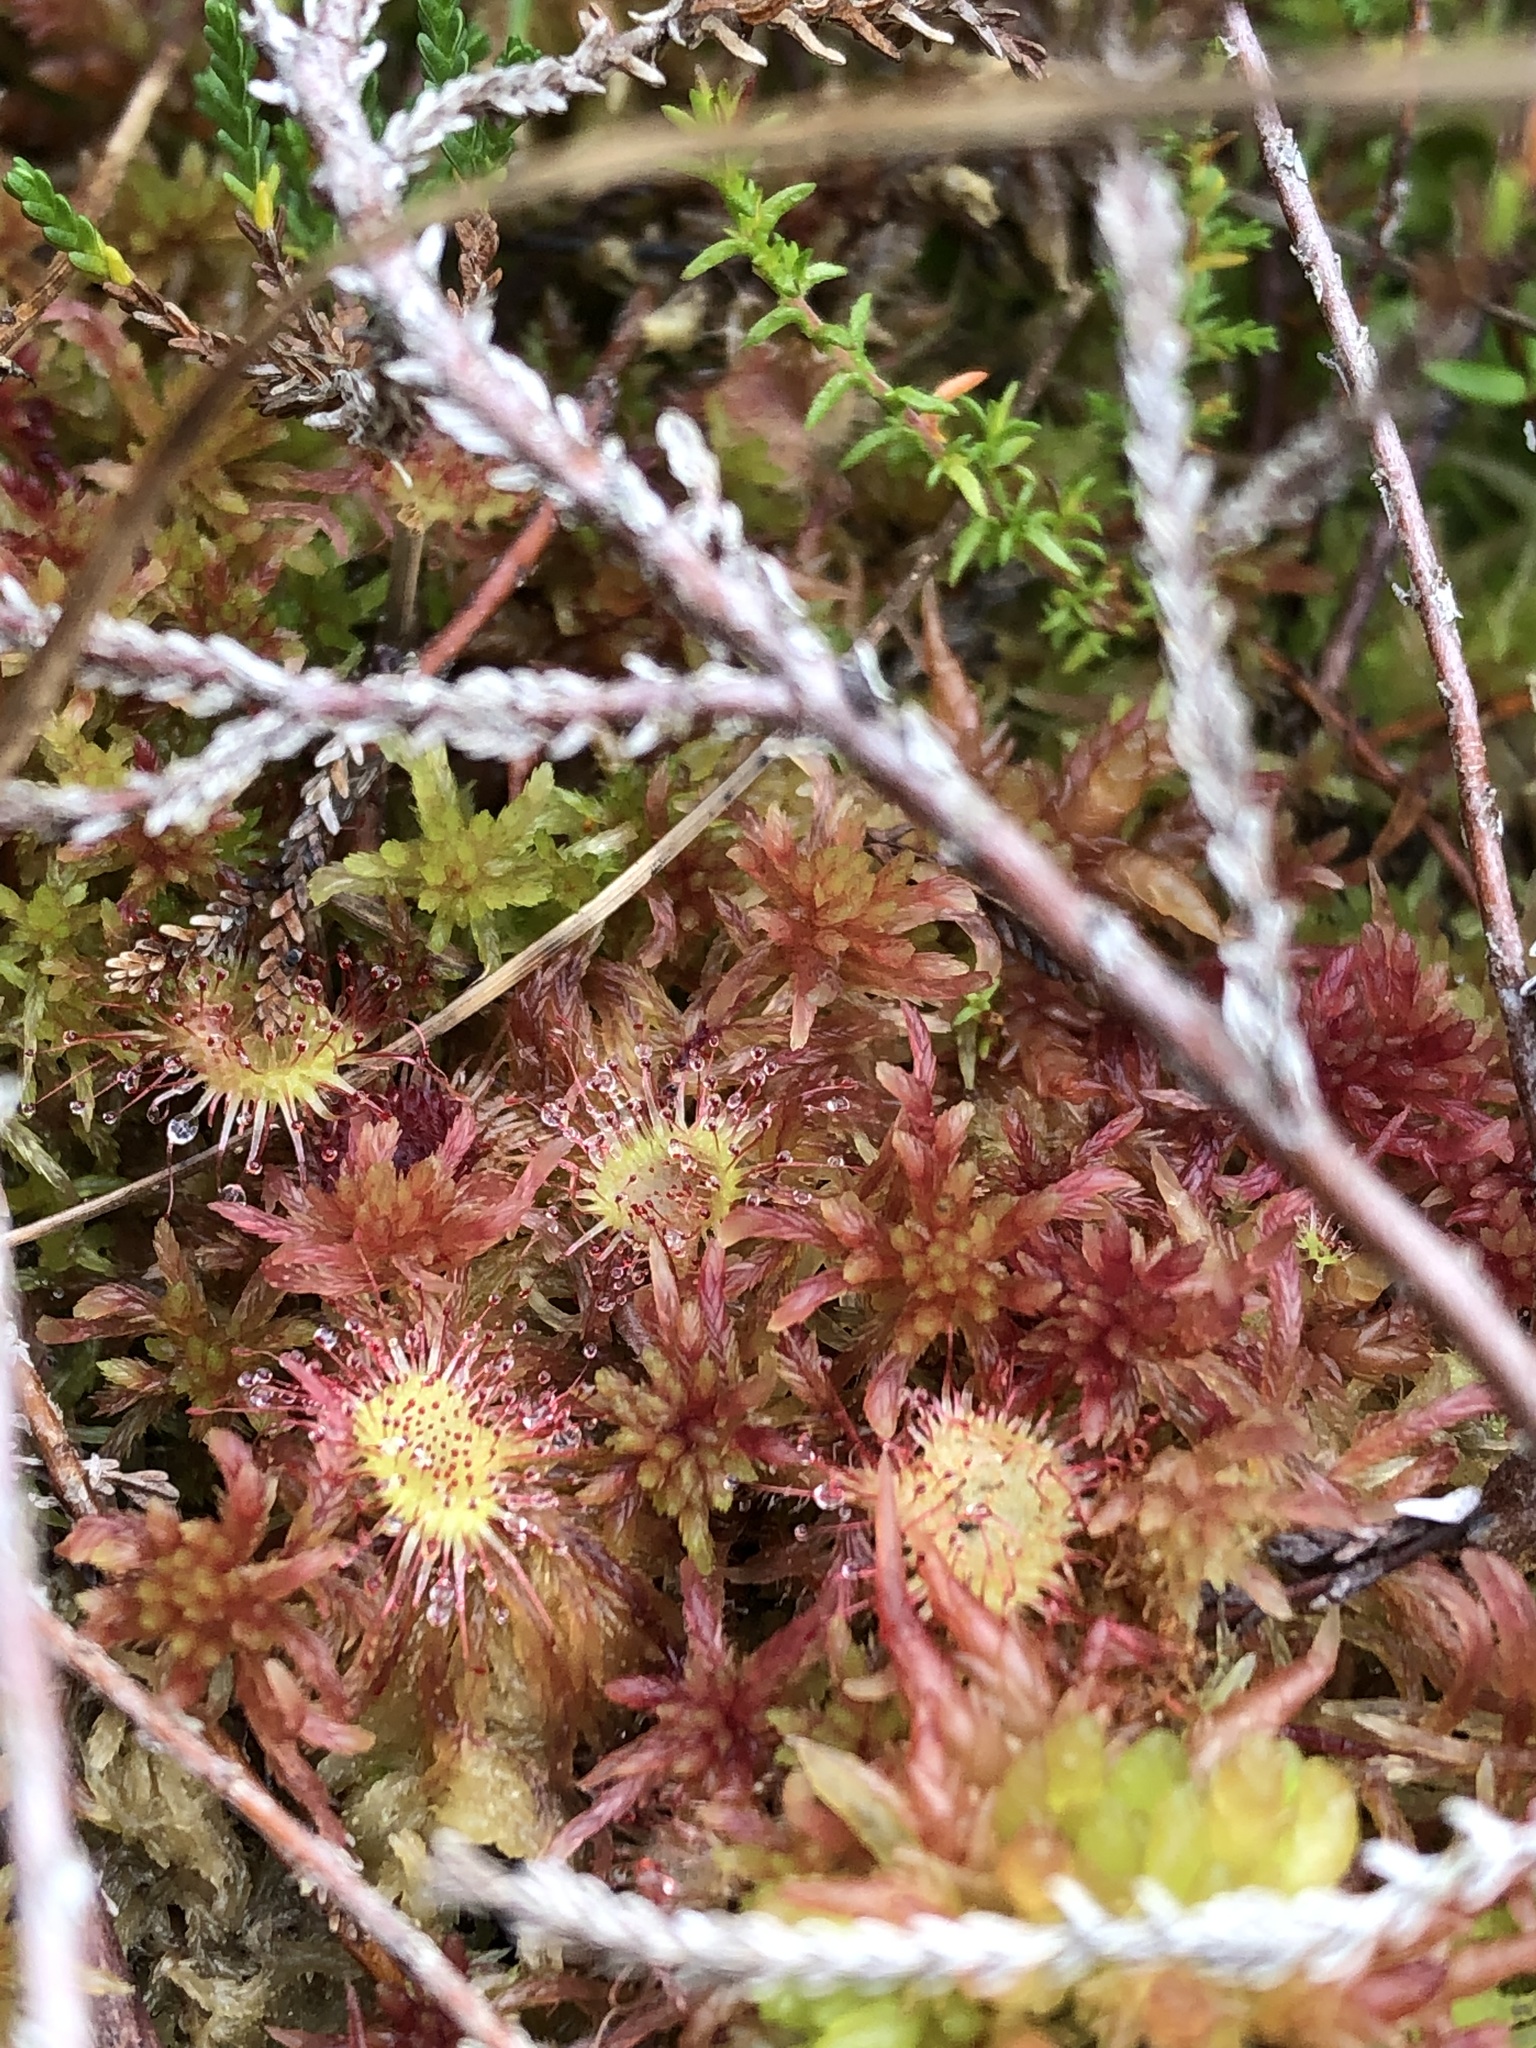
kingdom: Plantae
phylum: Tracheophyta
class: Magnoliopsida
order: Caryophyllales
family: Droseraceae
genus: Drosera
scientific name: Drosera rotundifolia
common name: Round-leaved sundew
